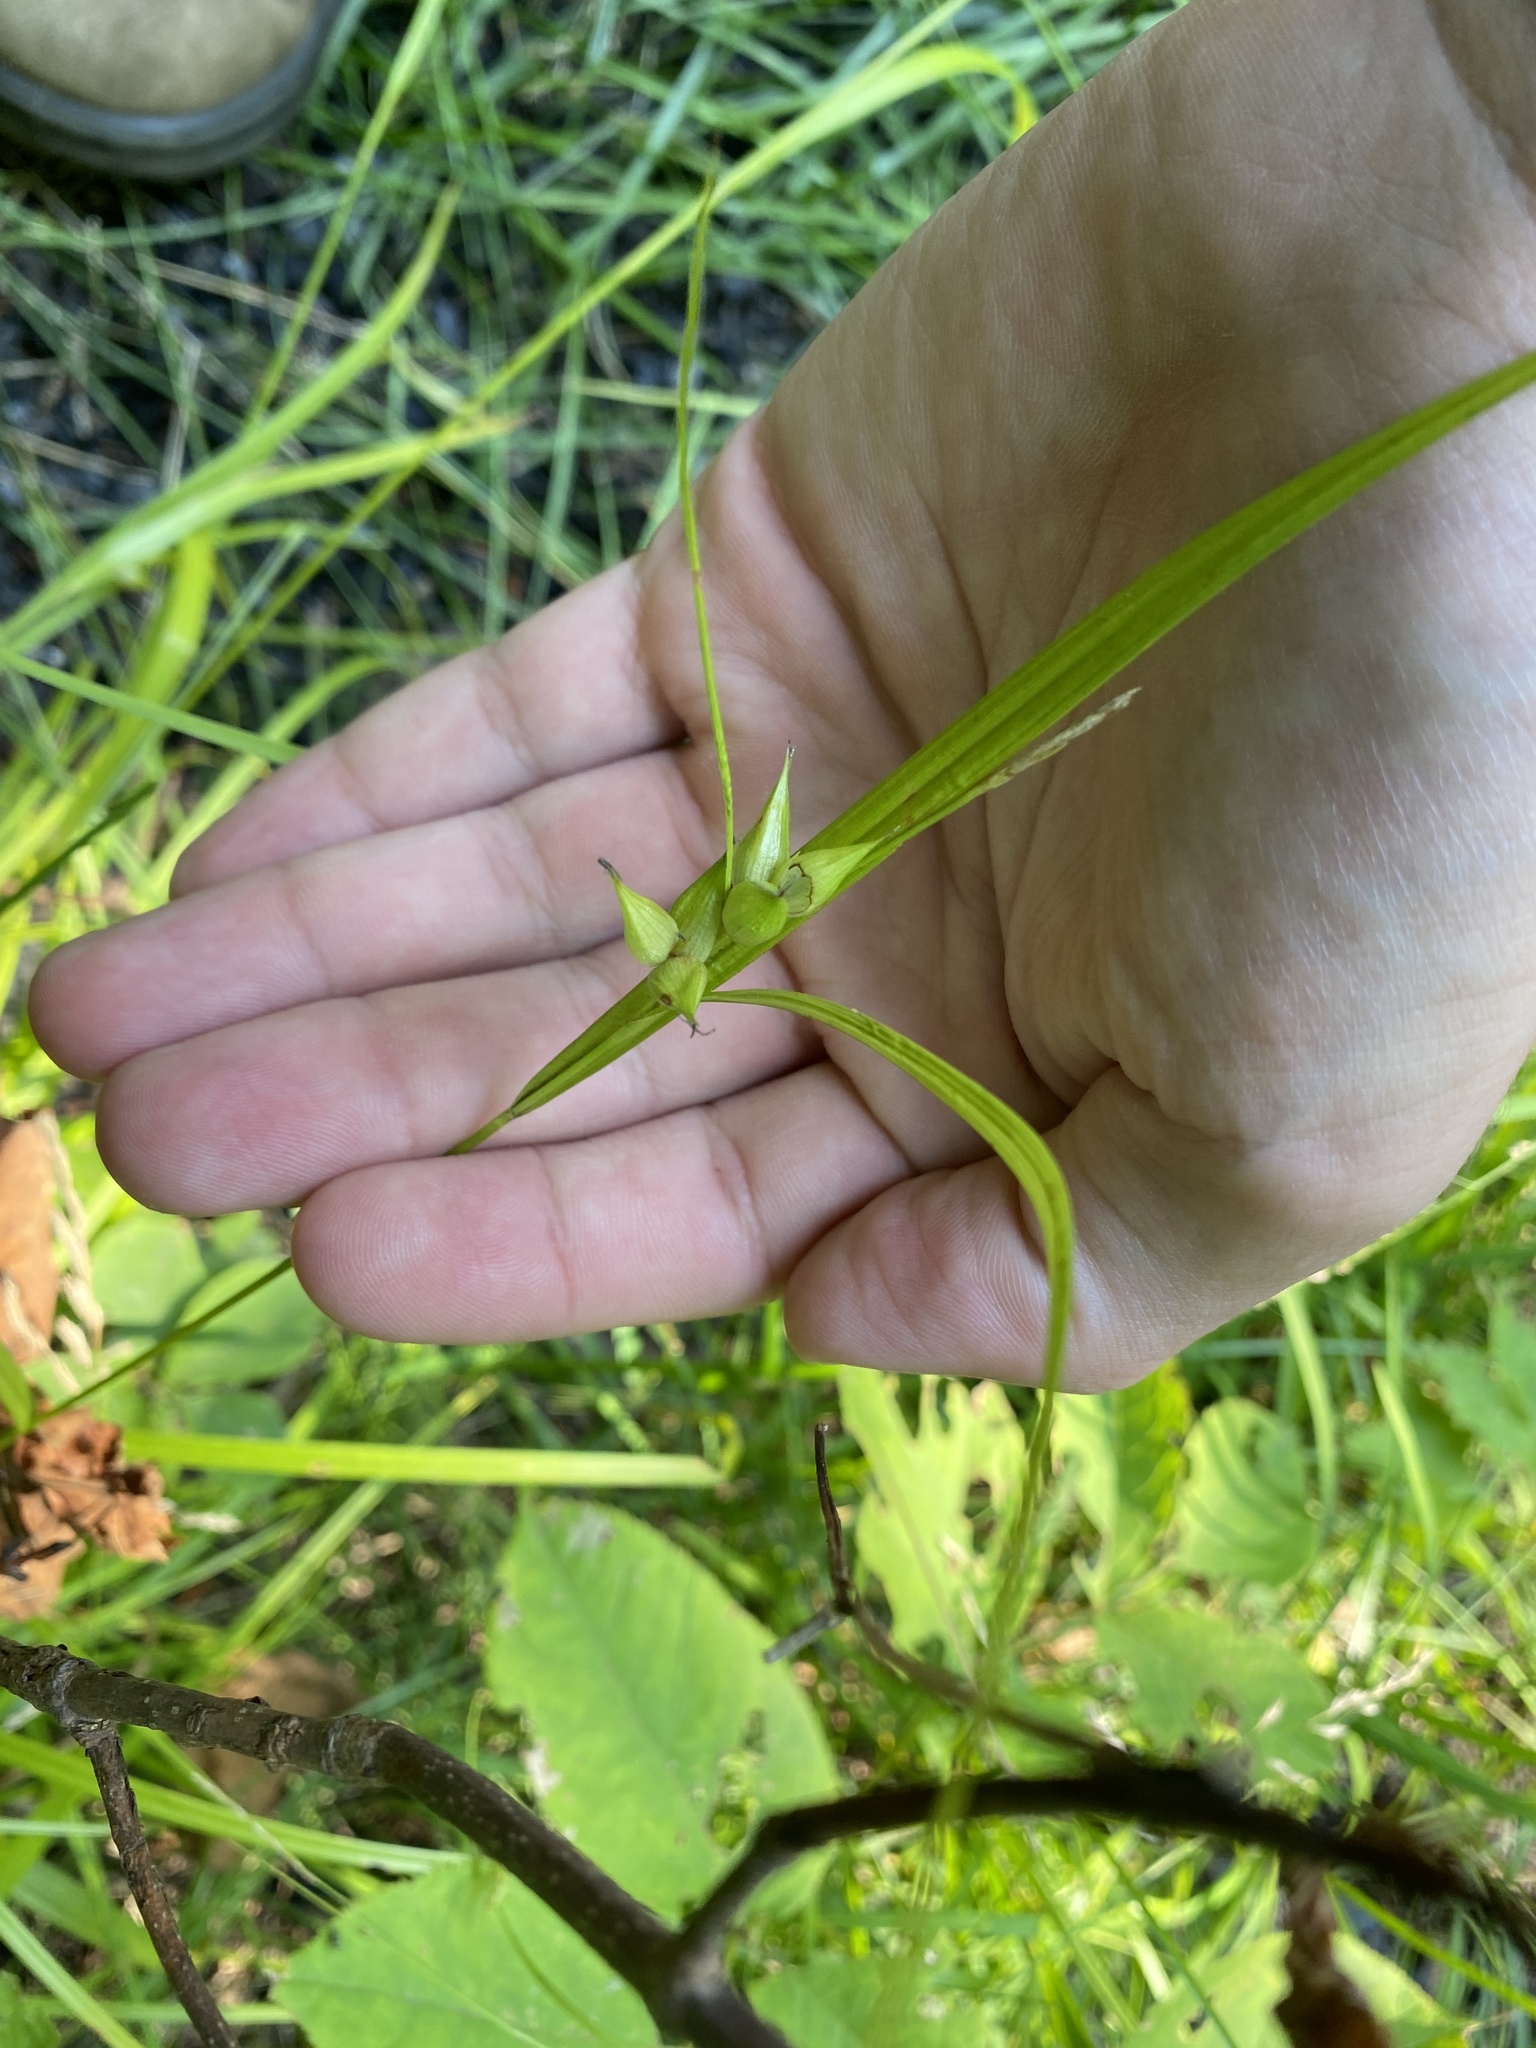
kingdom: Plantae
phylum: Tracheophyta
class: Liliopsida
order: Poales
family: Cyperaceae
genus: Carex
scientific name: Carex intumescens
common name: Greater bladder sedge
